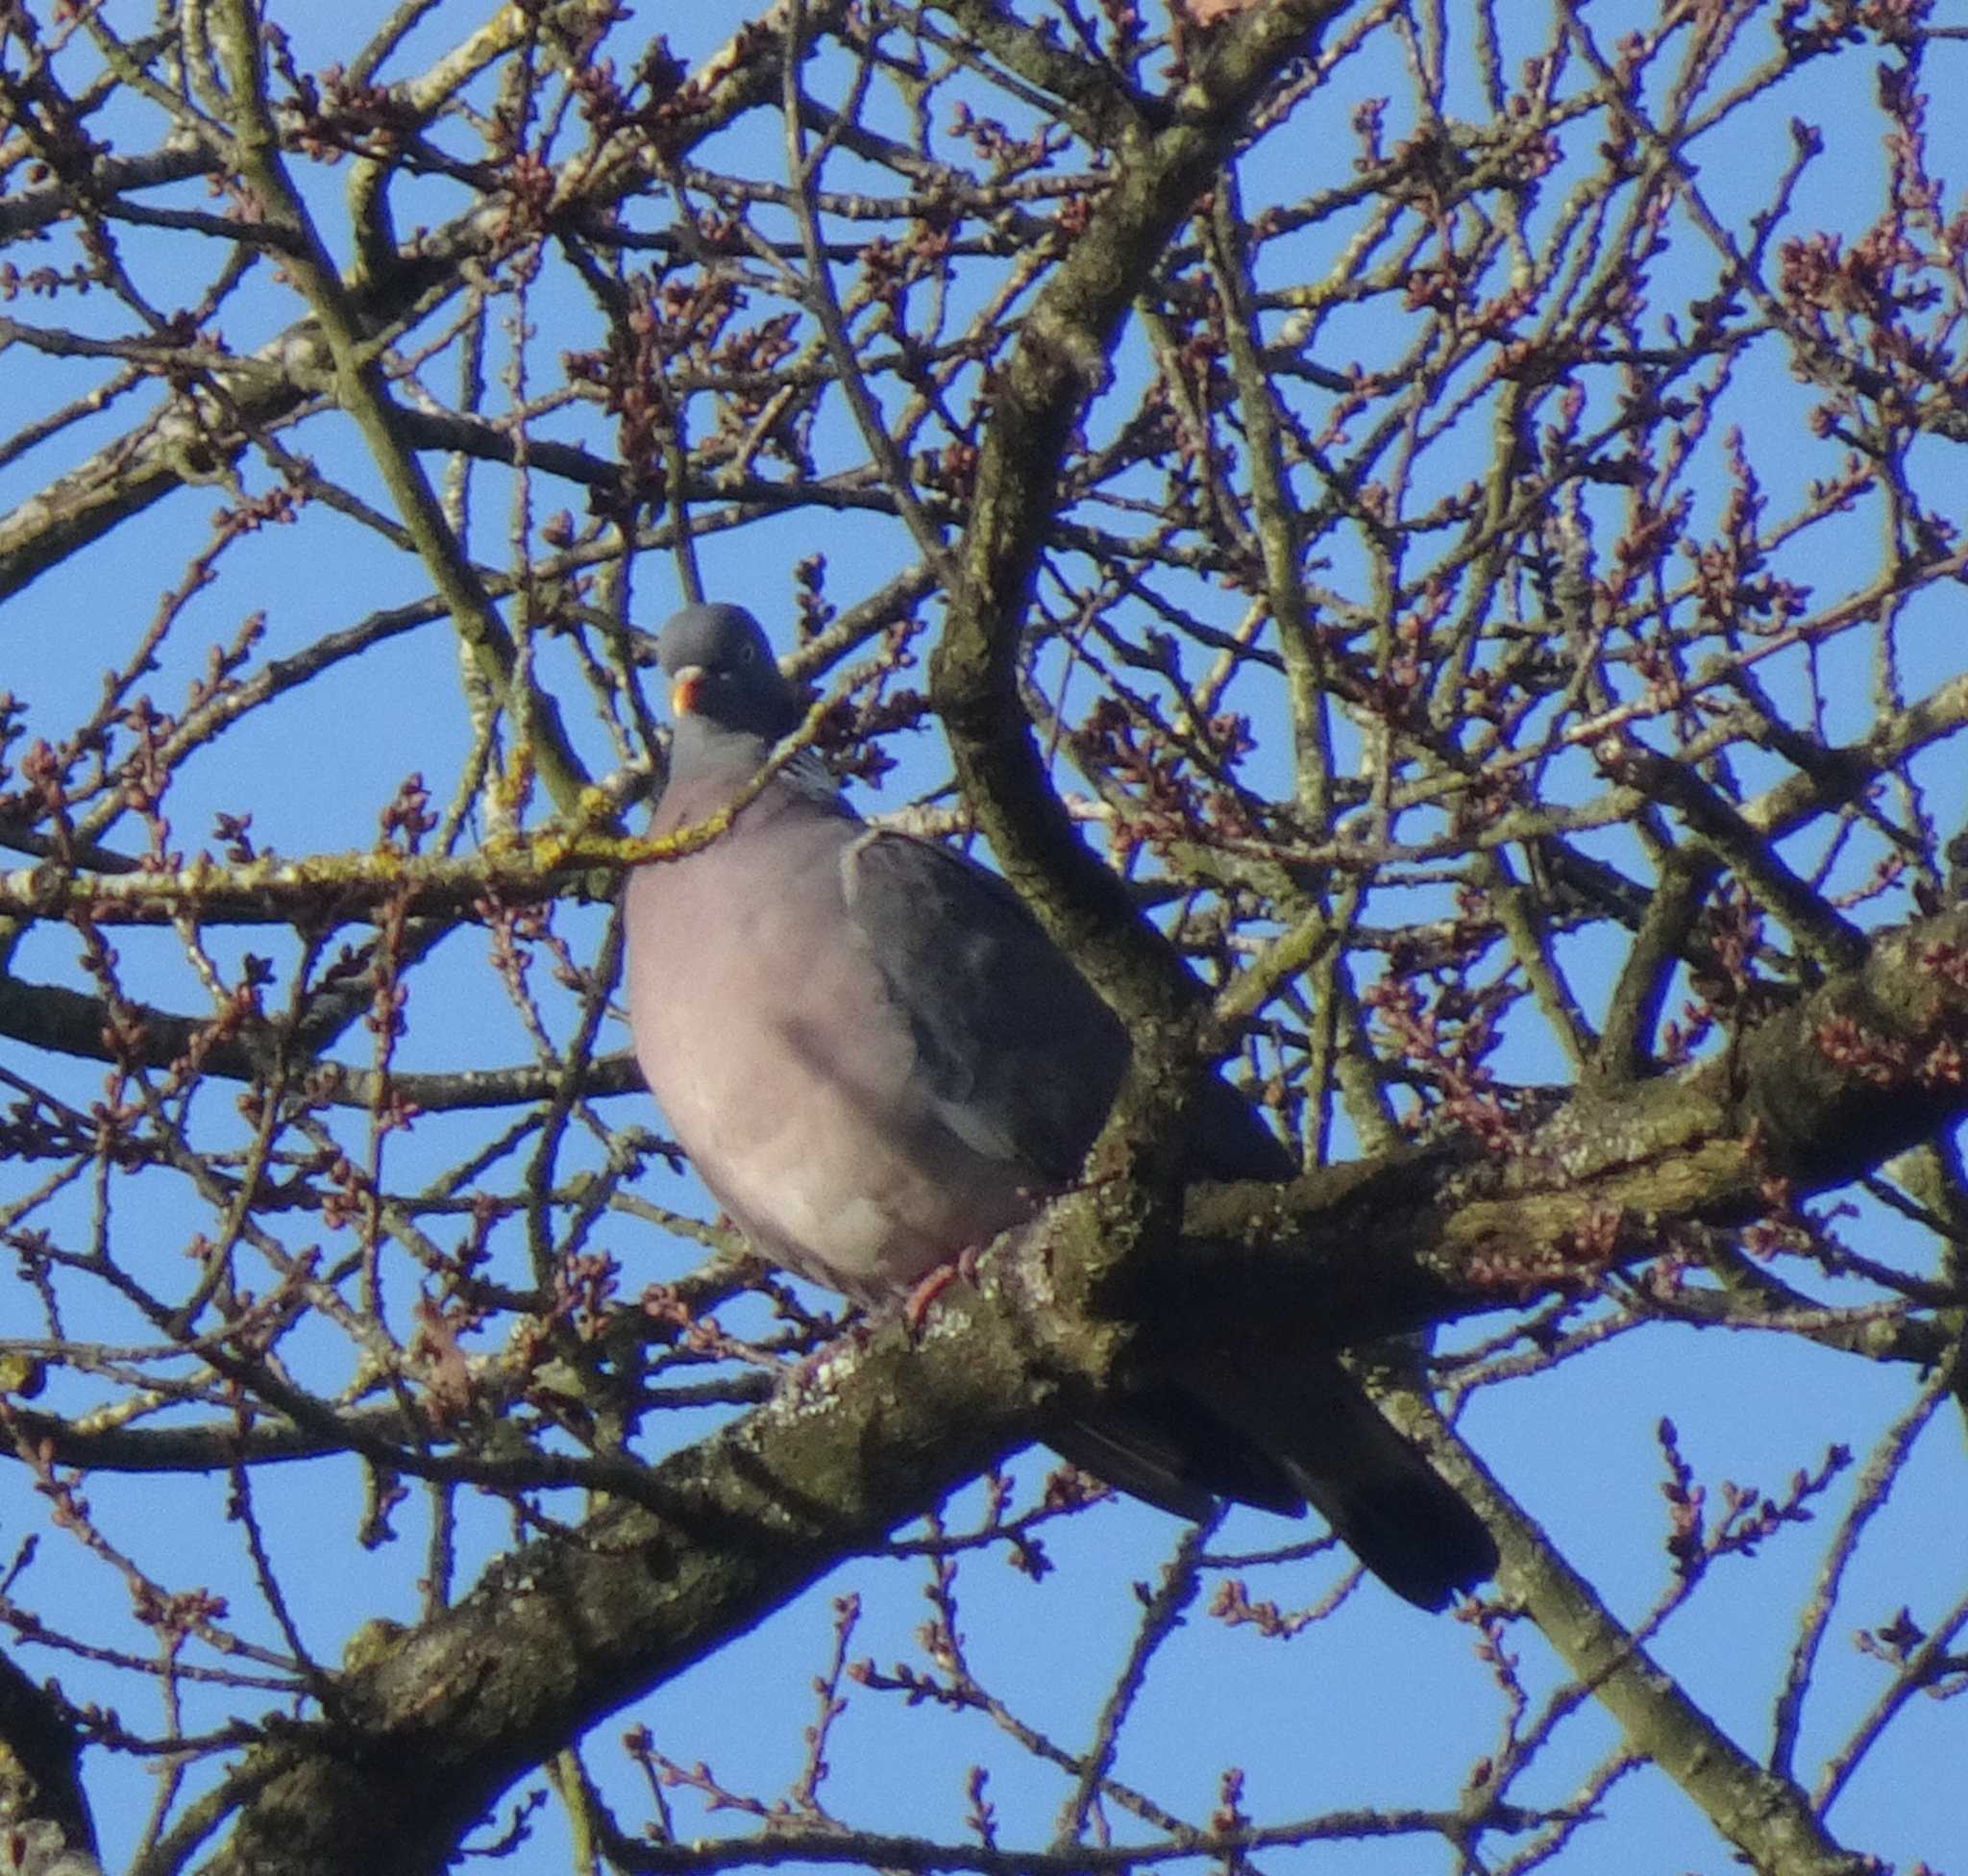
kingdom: Animalia
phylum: Chordata
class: Aves
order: Columbiformes
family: Columbidae
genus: Columba
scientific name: Columba palumbus
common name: Common wood pigeon
